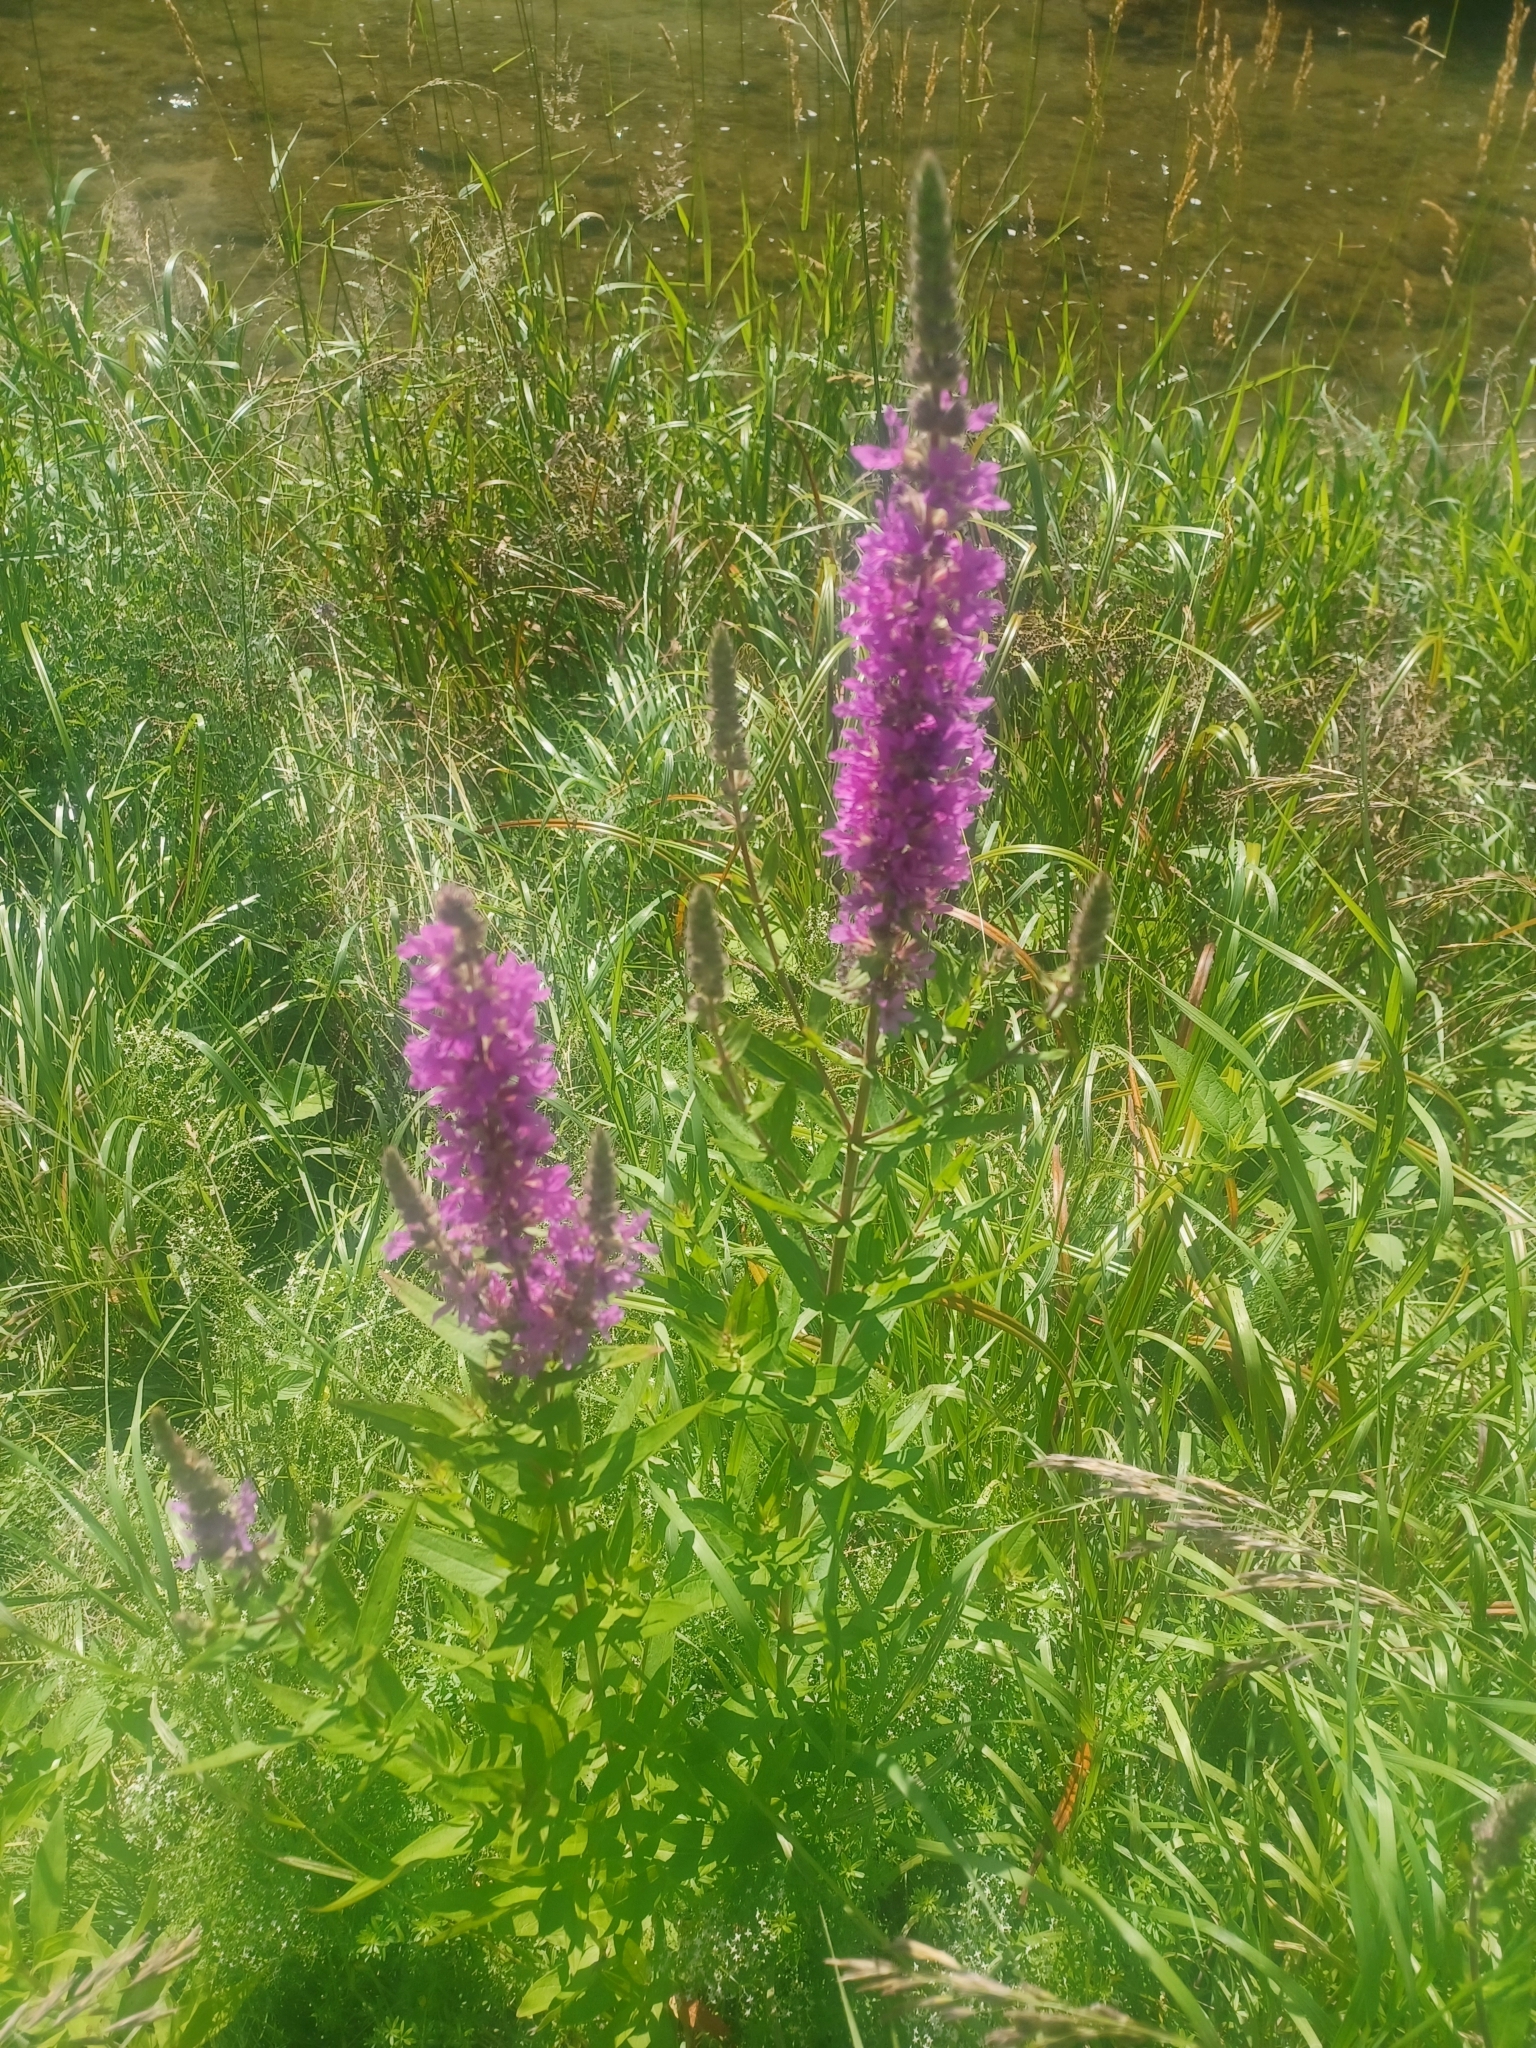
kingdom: Plantae
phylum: Tracheophyta
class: Magnoliopsida
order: Myrtales
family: Lythraceae
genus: Lythrum
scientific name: Lythrum salicaria
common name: Purple loosestrife
